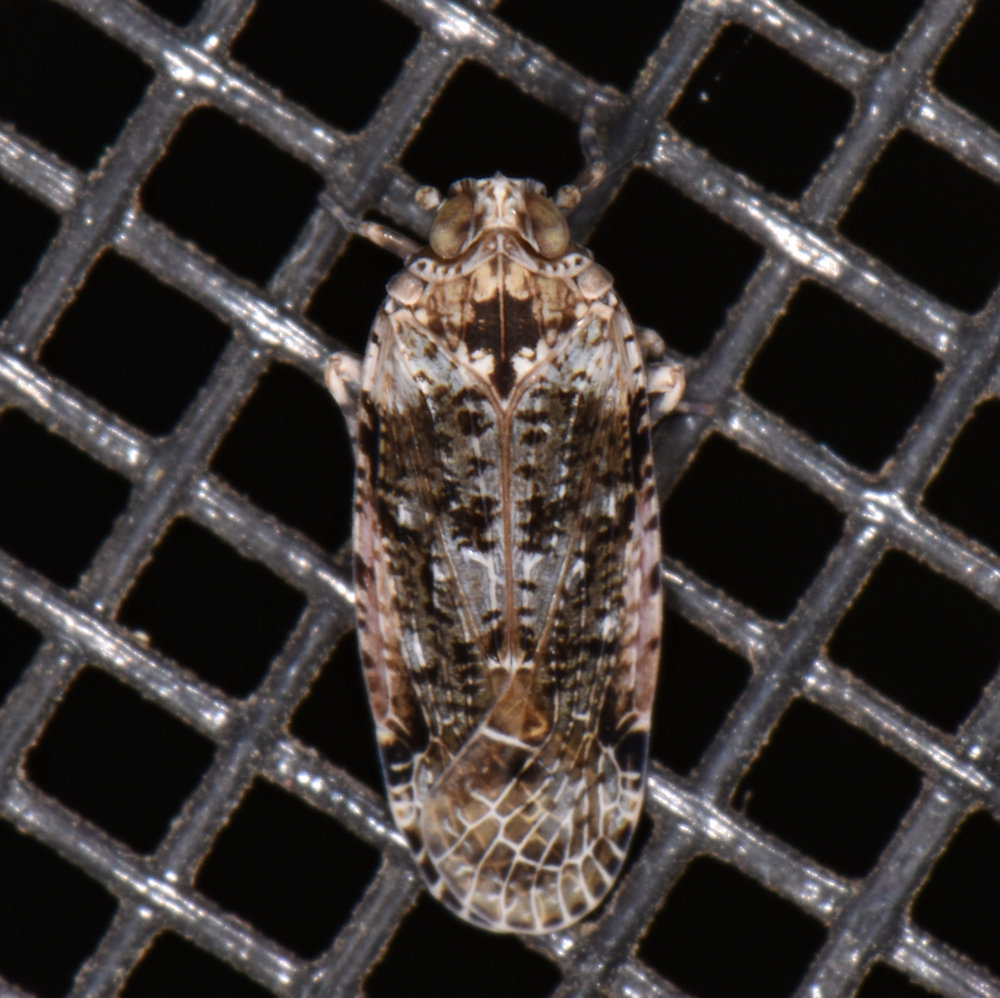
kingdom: Animalia
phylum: Arthropoda
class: Insecta
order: Hemiptera
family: Achilidae
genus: Catonia
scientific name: Catonia nava
